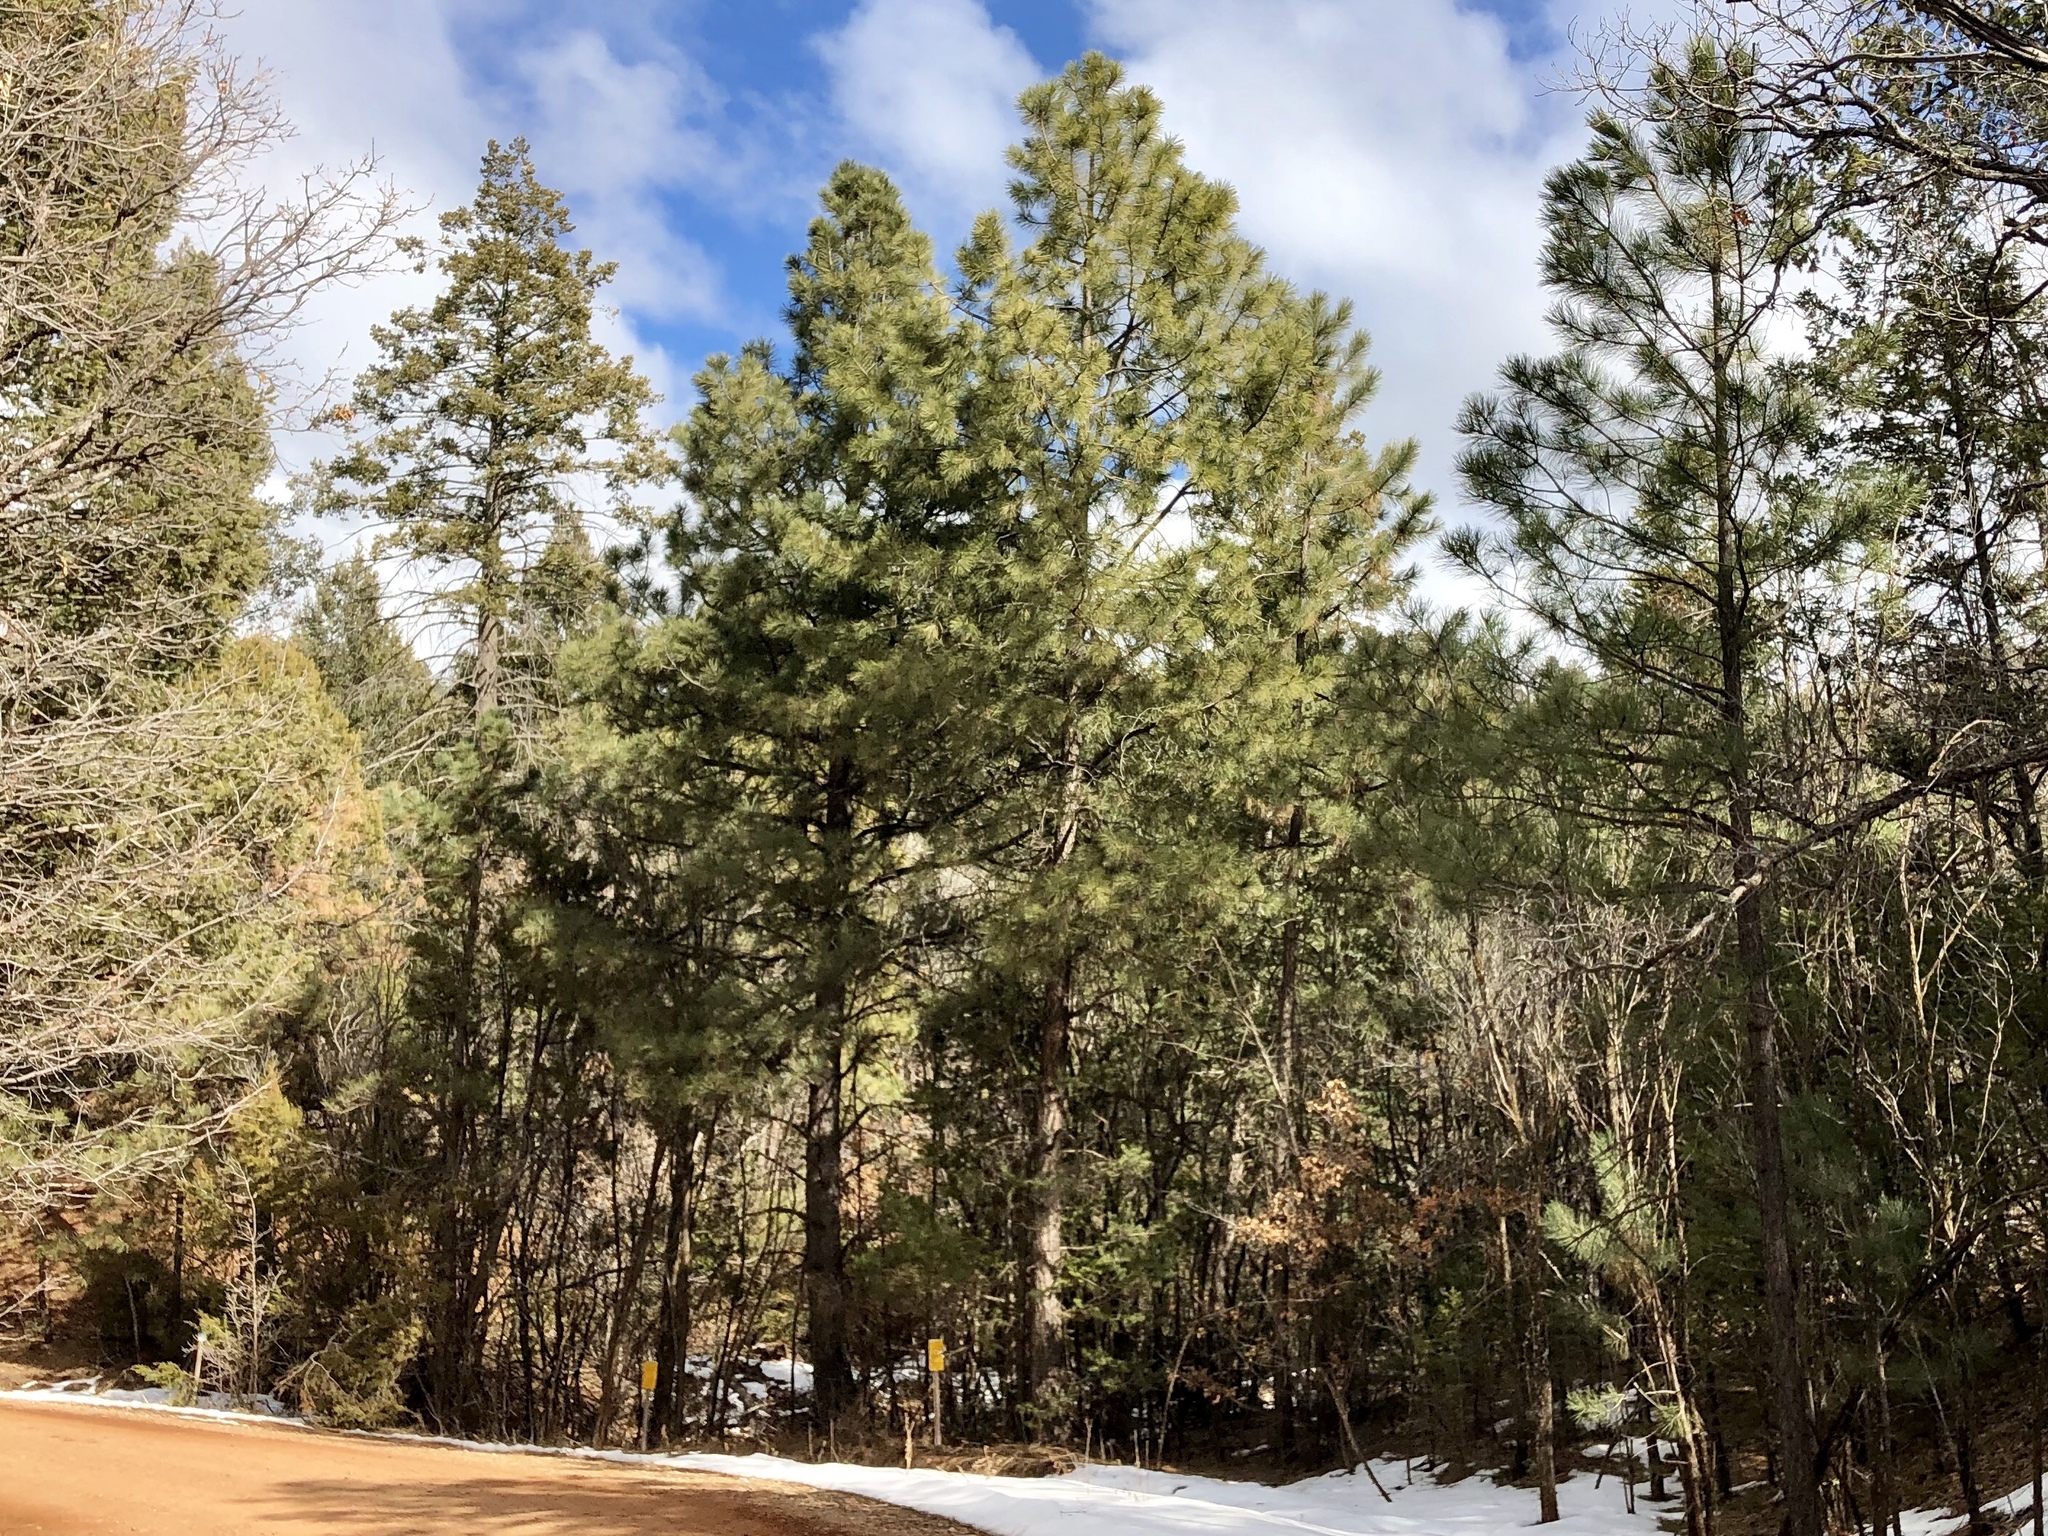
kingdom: Plantae
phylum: Tracheophyta
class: Pinopsida
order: Pinales
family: Pinaceae
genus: Pinus
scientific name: Pinus ponderosa
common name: Western yellow-pine
